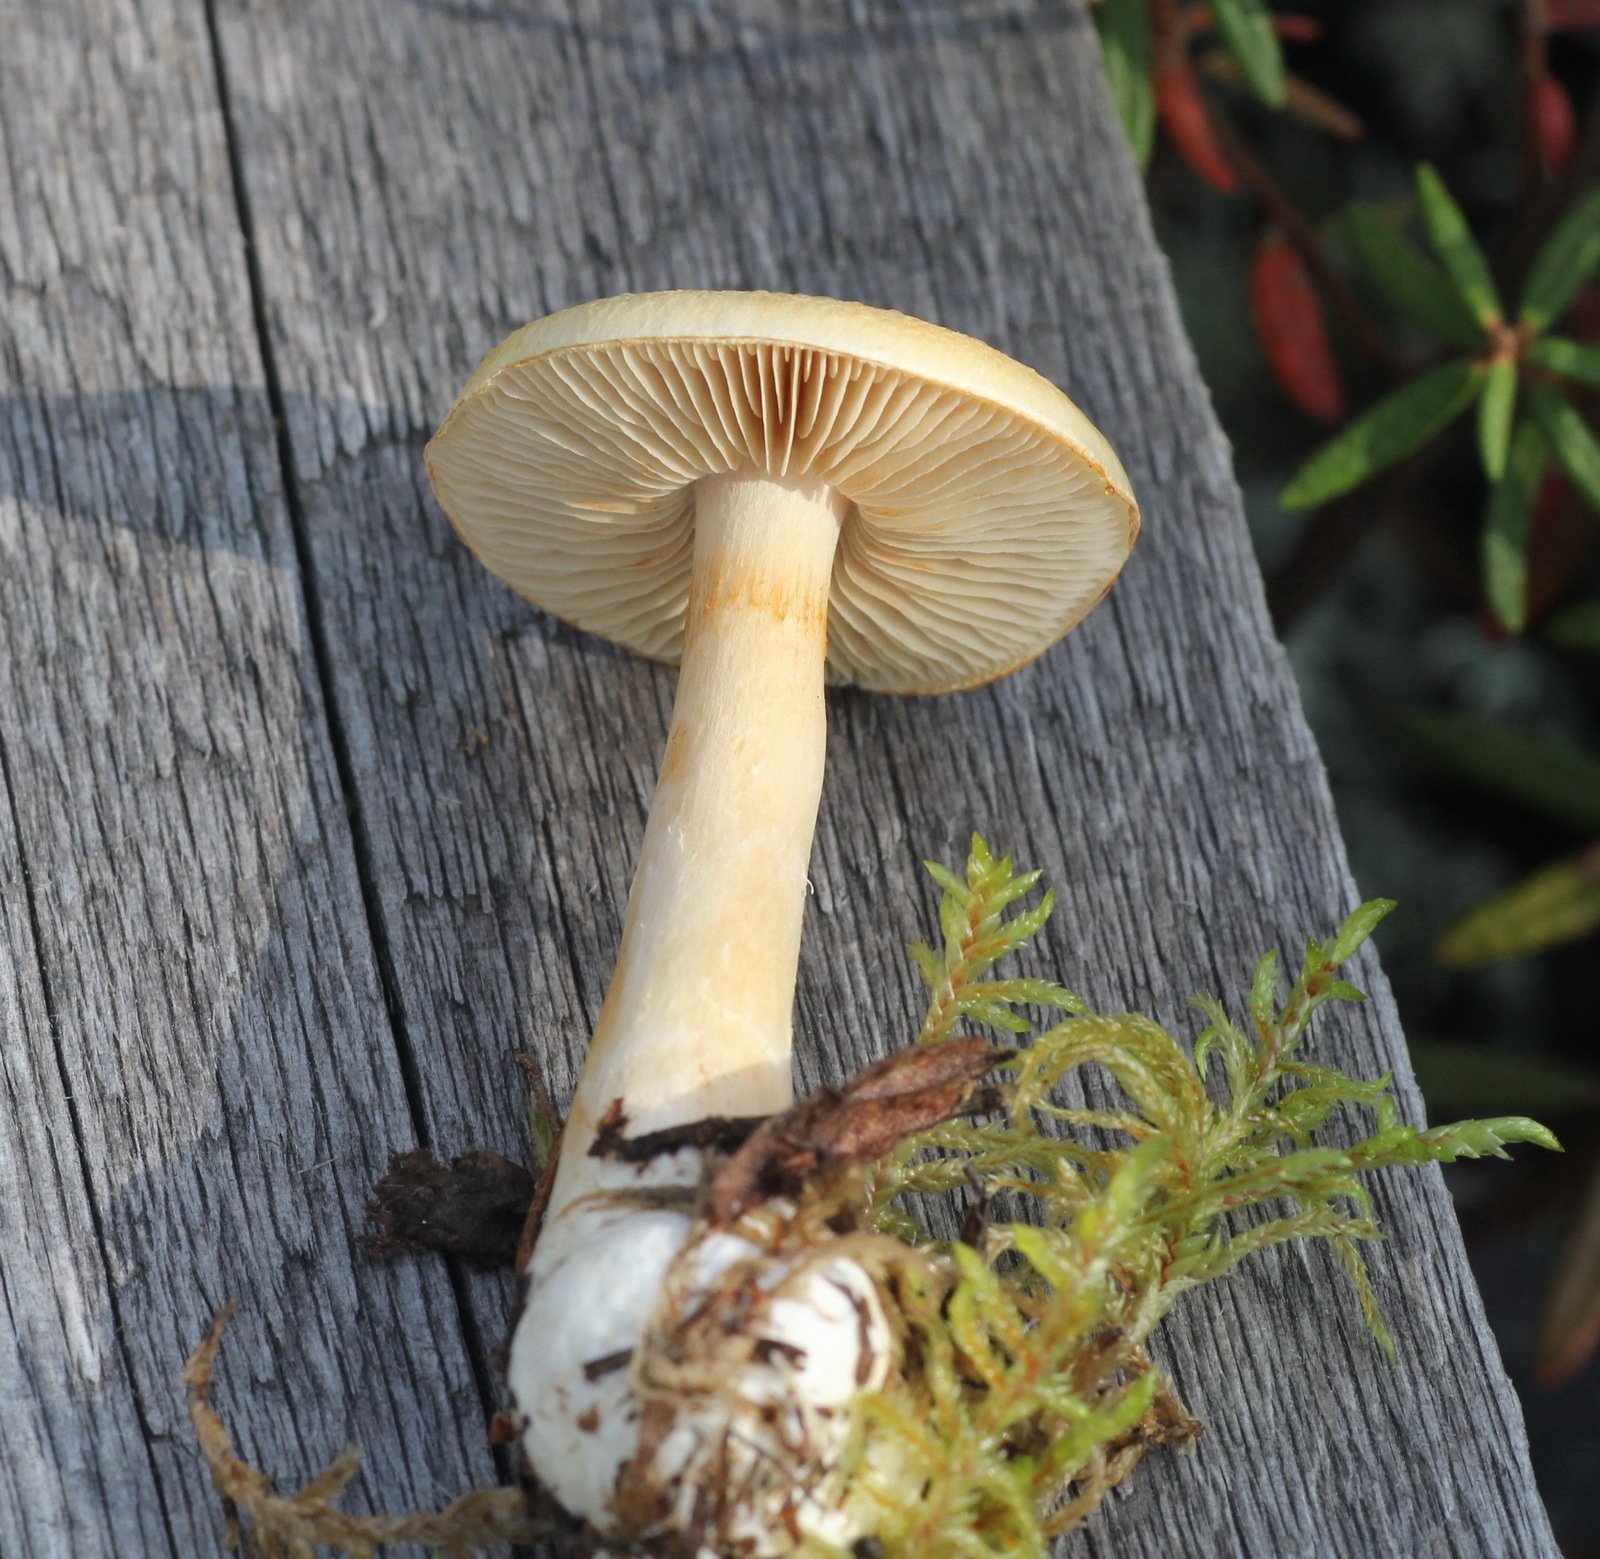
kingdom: Fungi
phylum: Basidiomycota
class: Agaricomycetes
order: Agaricales
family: Cortinariaceae
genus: Thaxterogaster
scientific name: Thaxterogaster pinophilus
